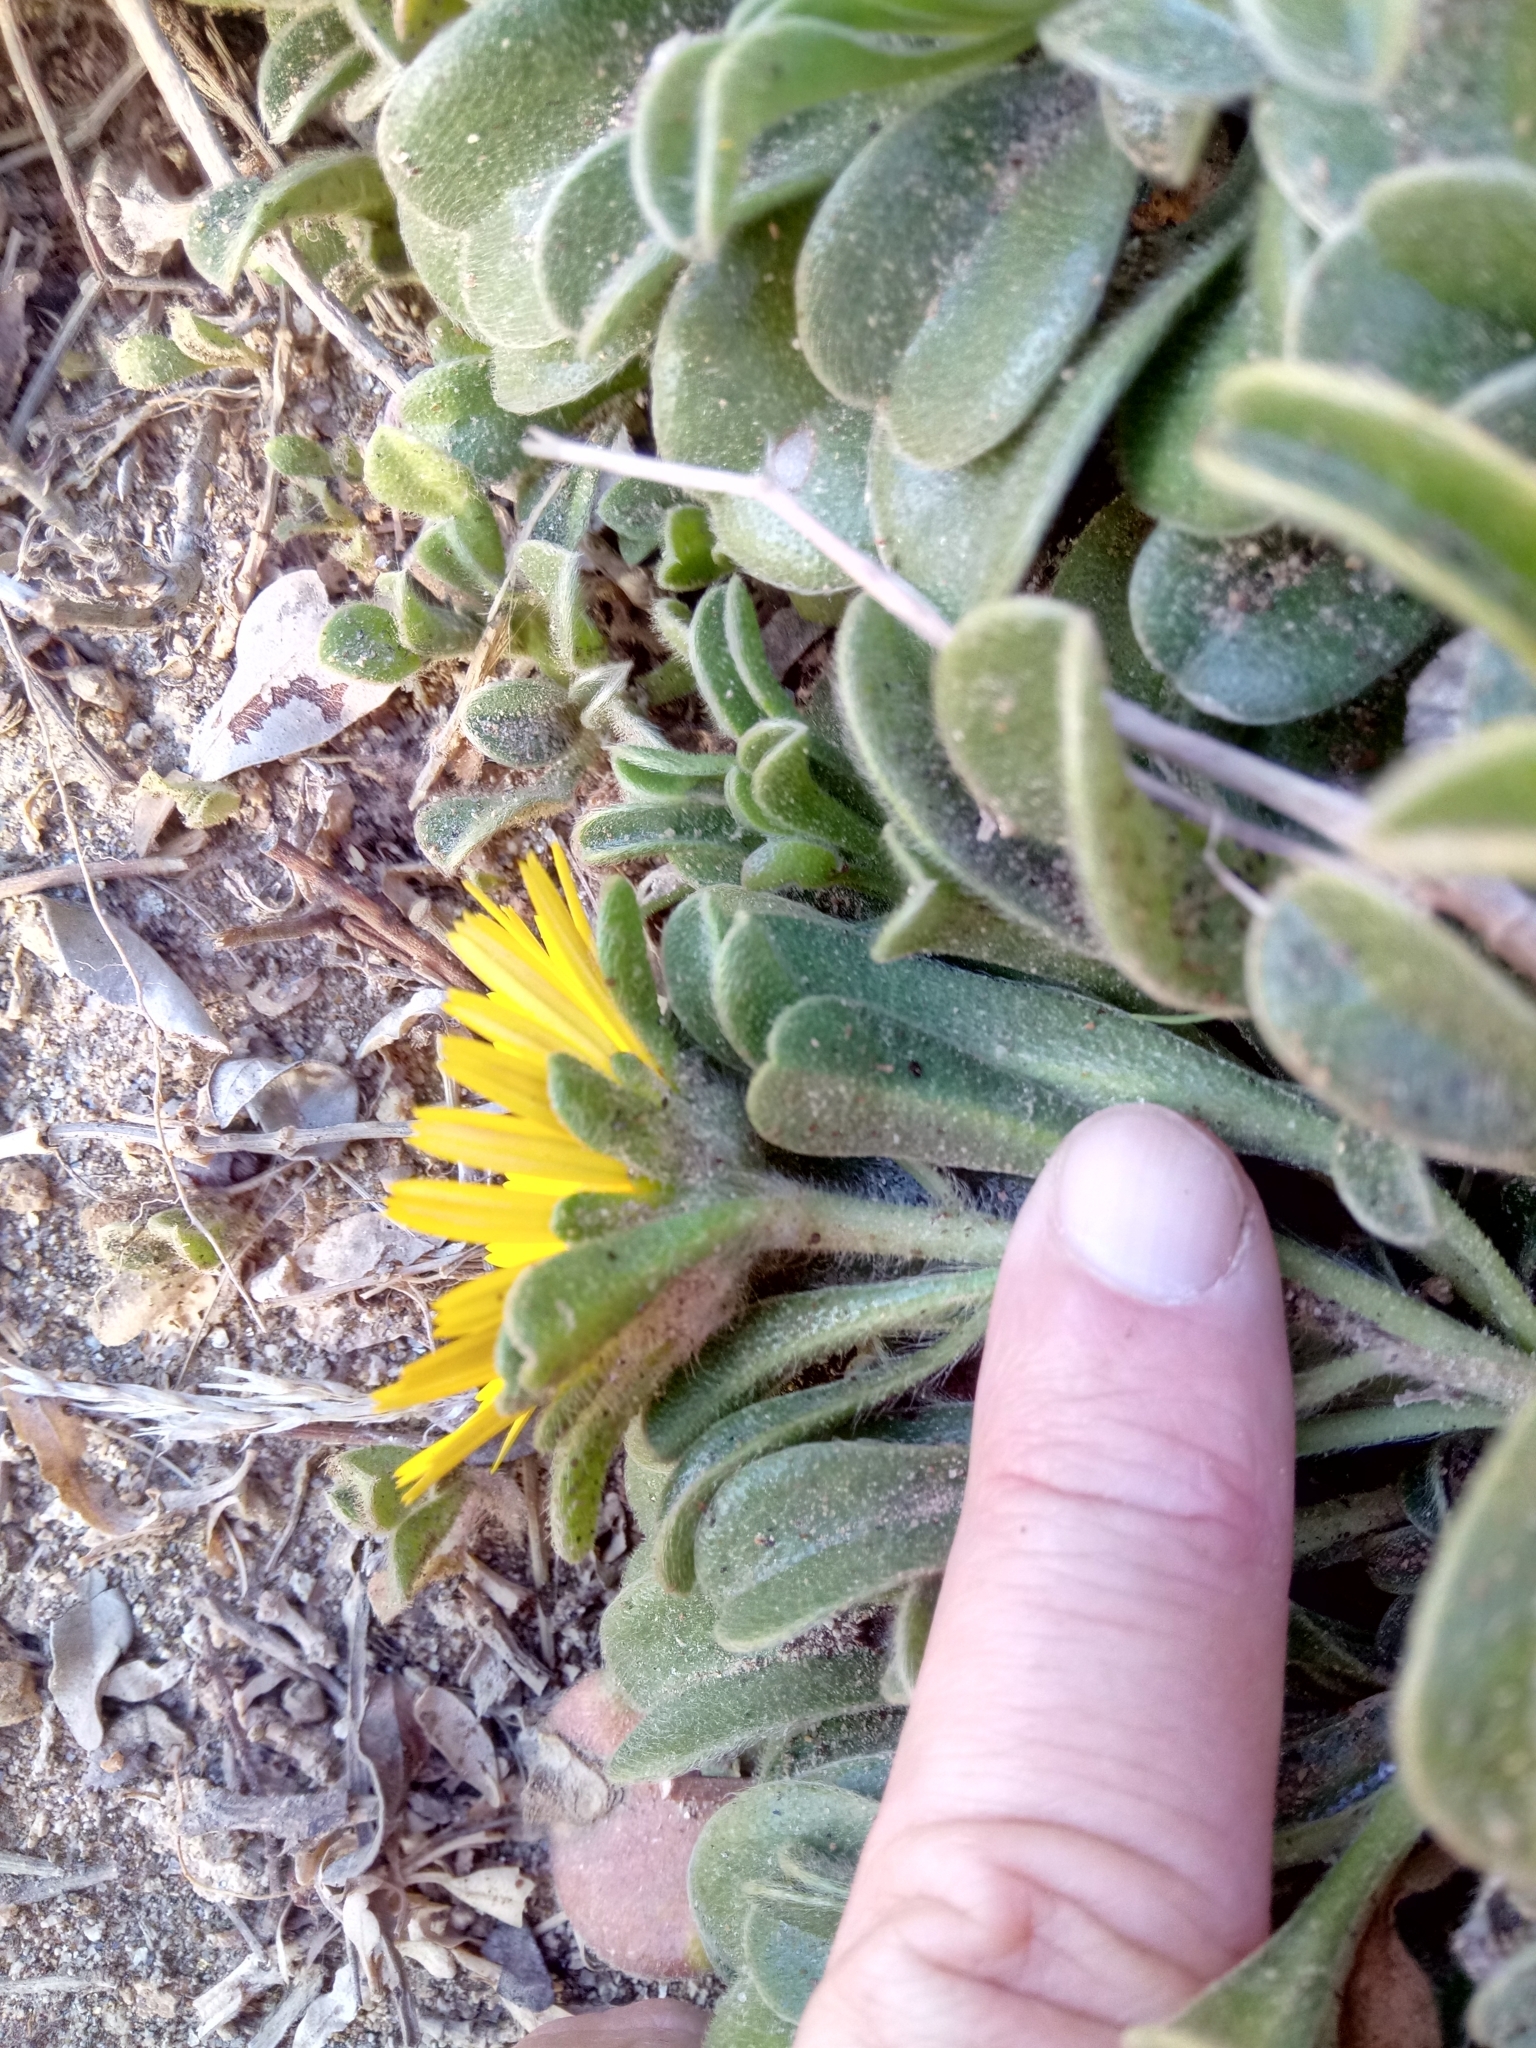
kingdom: Plantae
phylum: Tracheophyta
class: Magnoliopsida
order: Asterales
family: Asteraceae
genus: Pallenis
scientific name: Pallenis maritima
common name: Golden coin daisy
